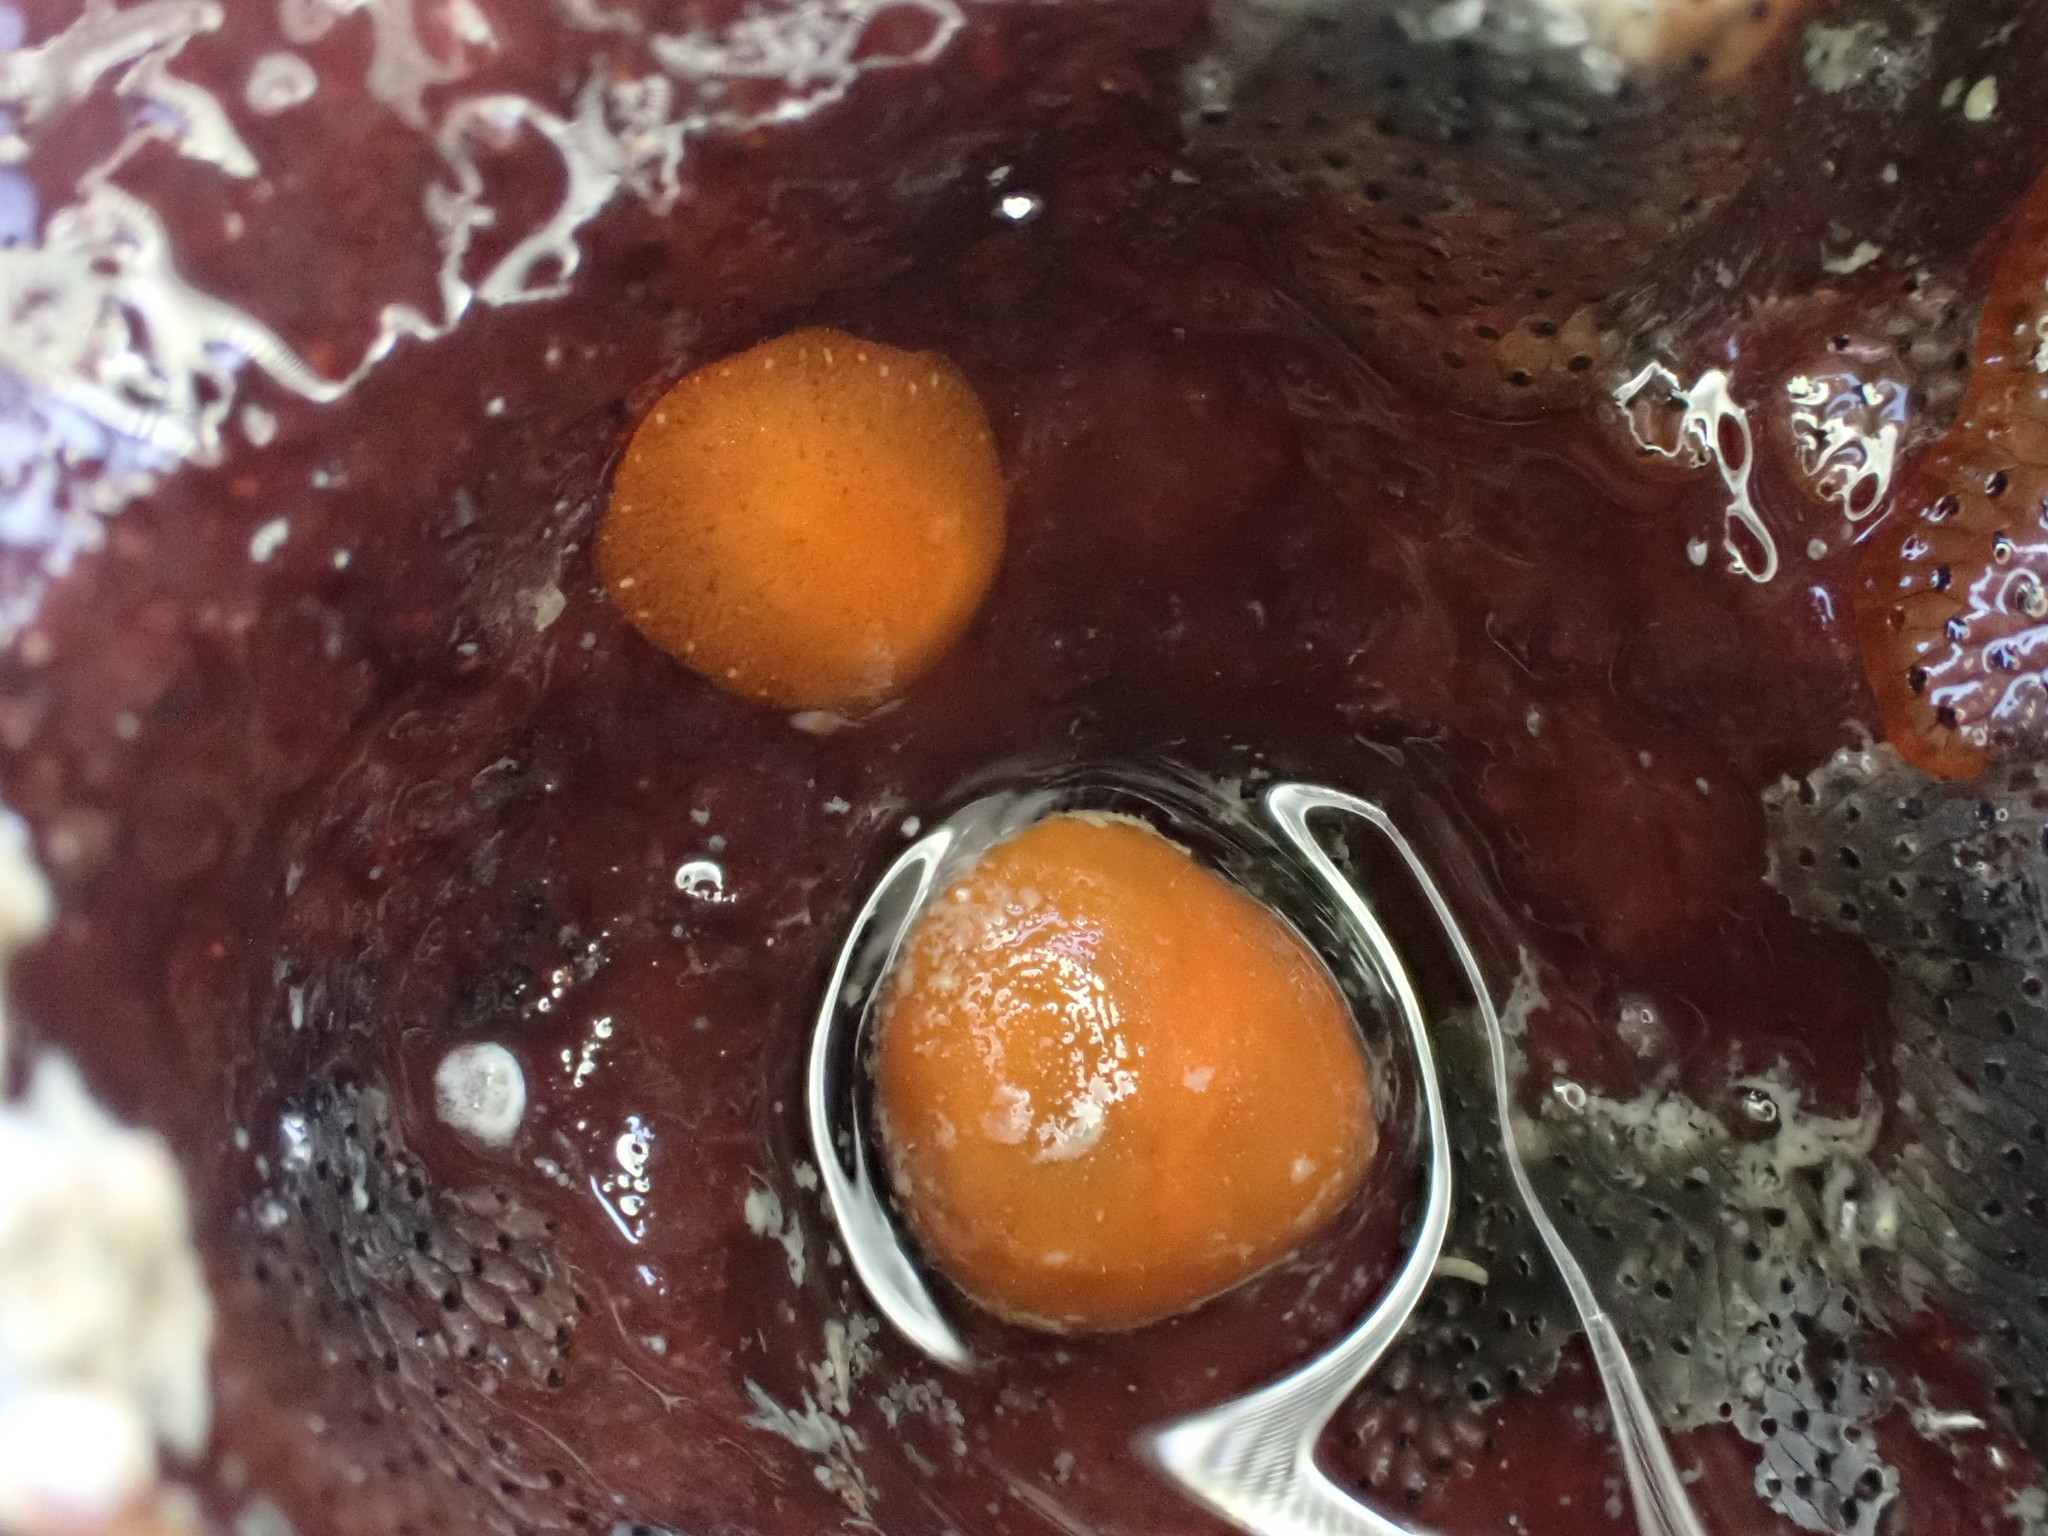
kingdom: Animalia
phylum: Mollusca
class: Gastropoda
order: Nudibranchia
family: Discodorididae
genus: Rostanga
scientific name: Rostanga muscula
